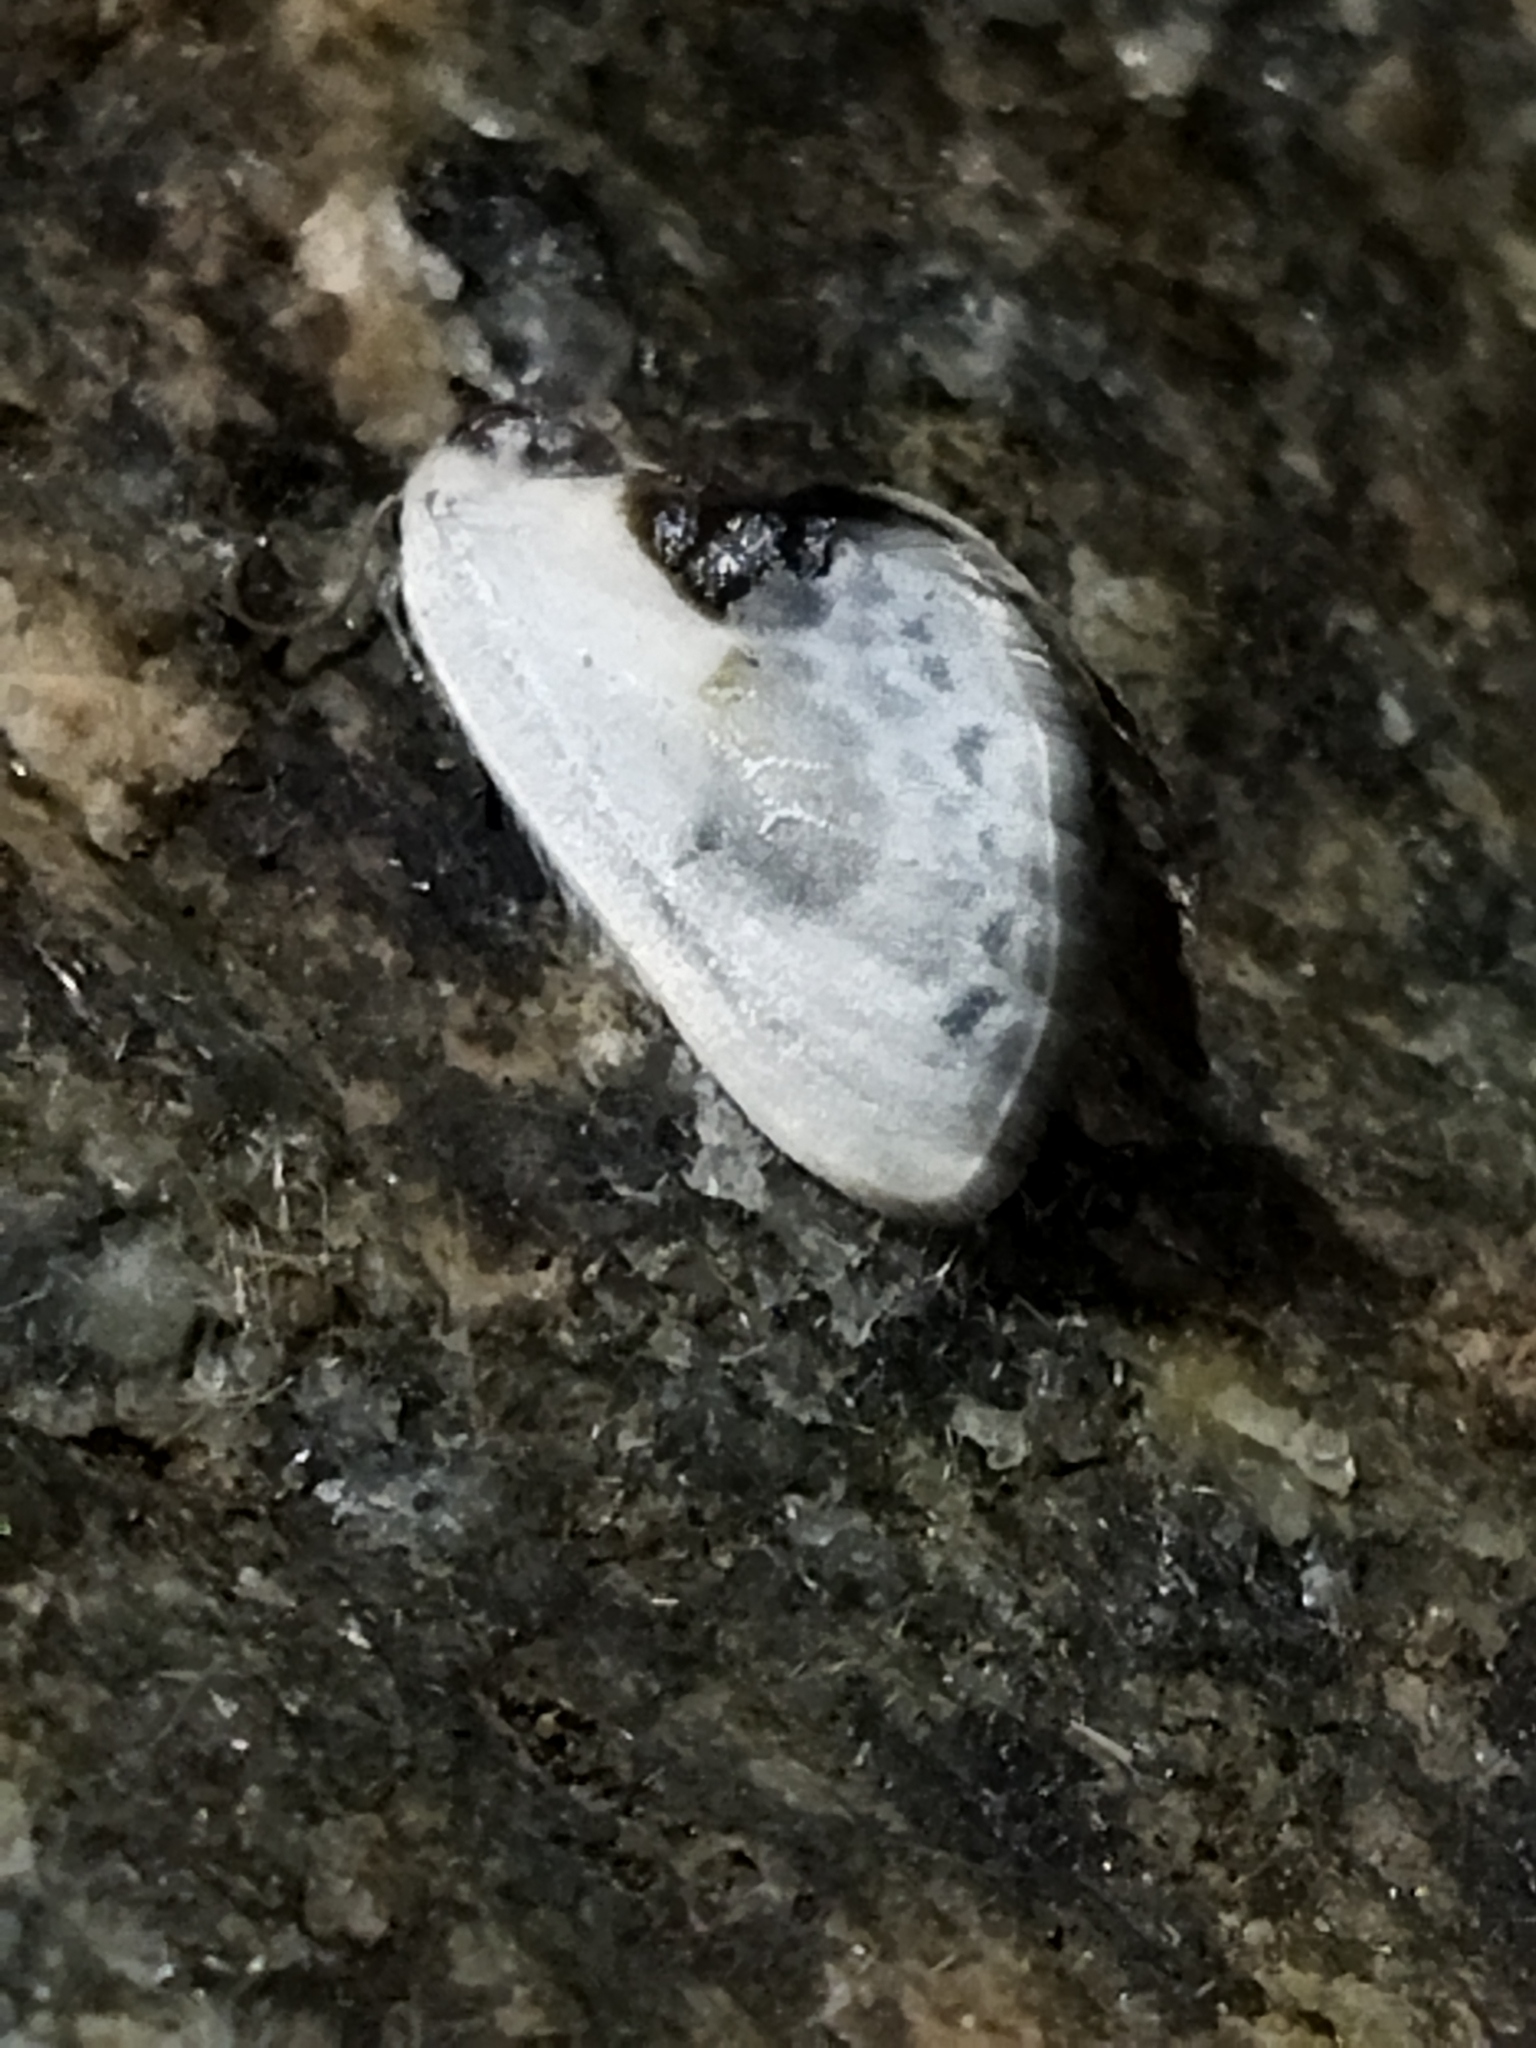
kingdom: Animalia
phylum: Arthropoda
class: Insecta
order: Lepidoptera
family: Drepanidae
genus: Cilix
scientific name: Cilix glaucata
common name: Chinese character
